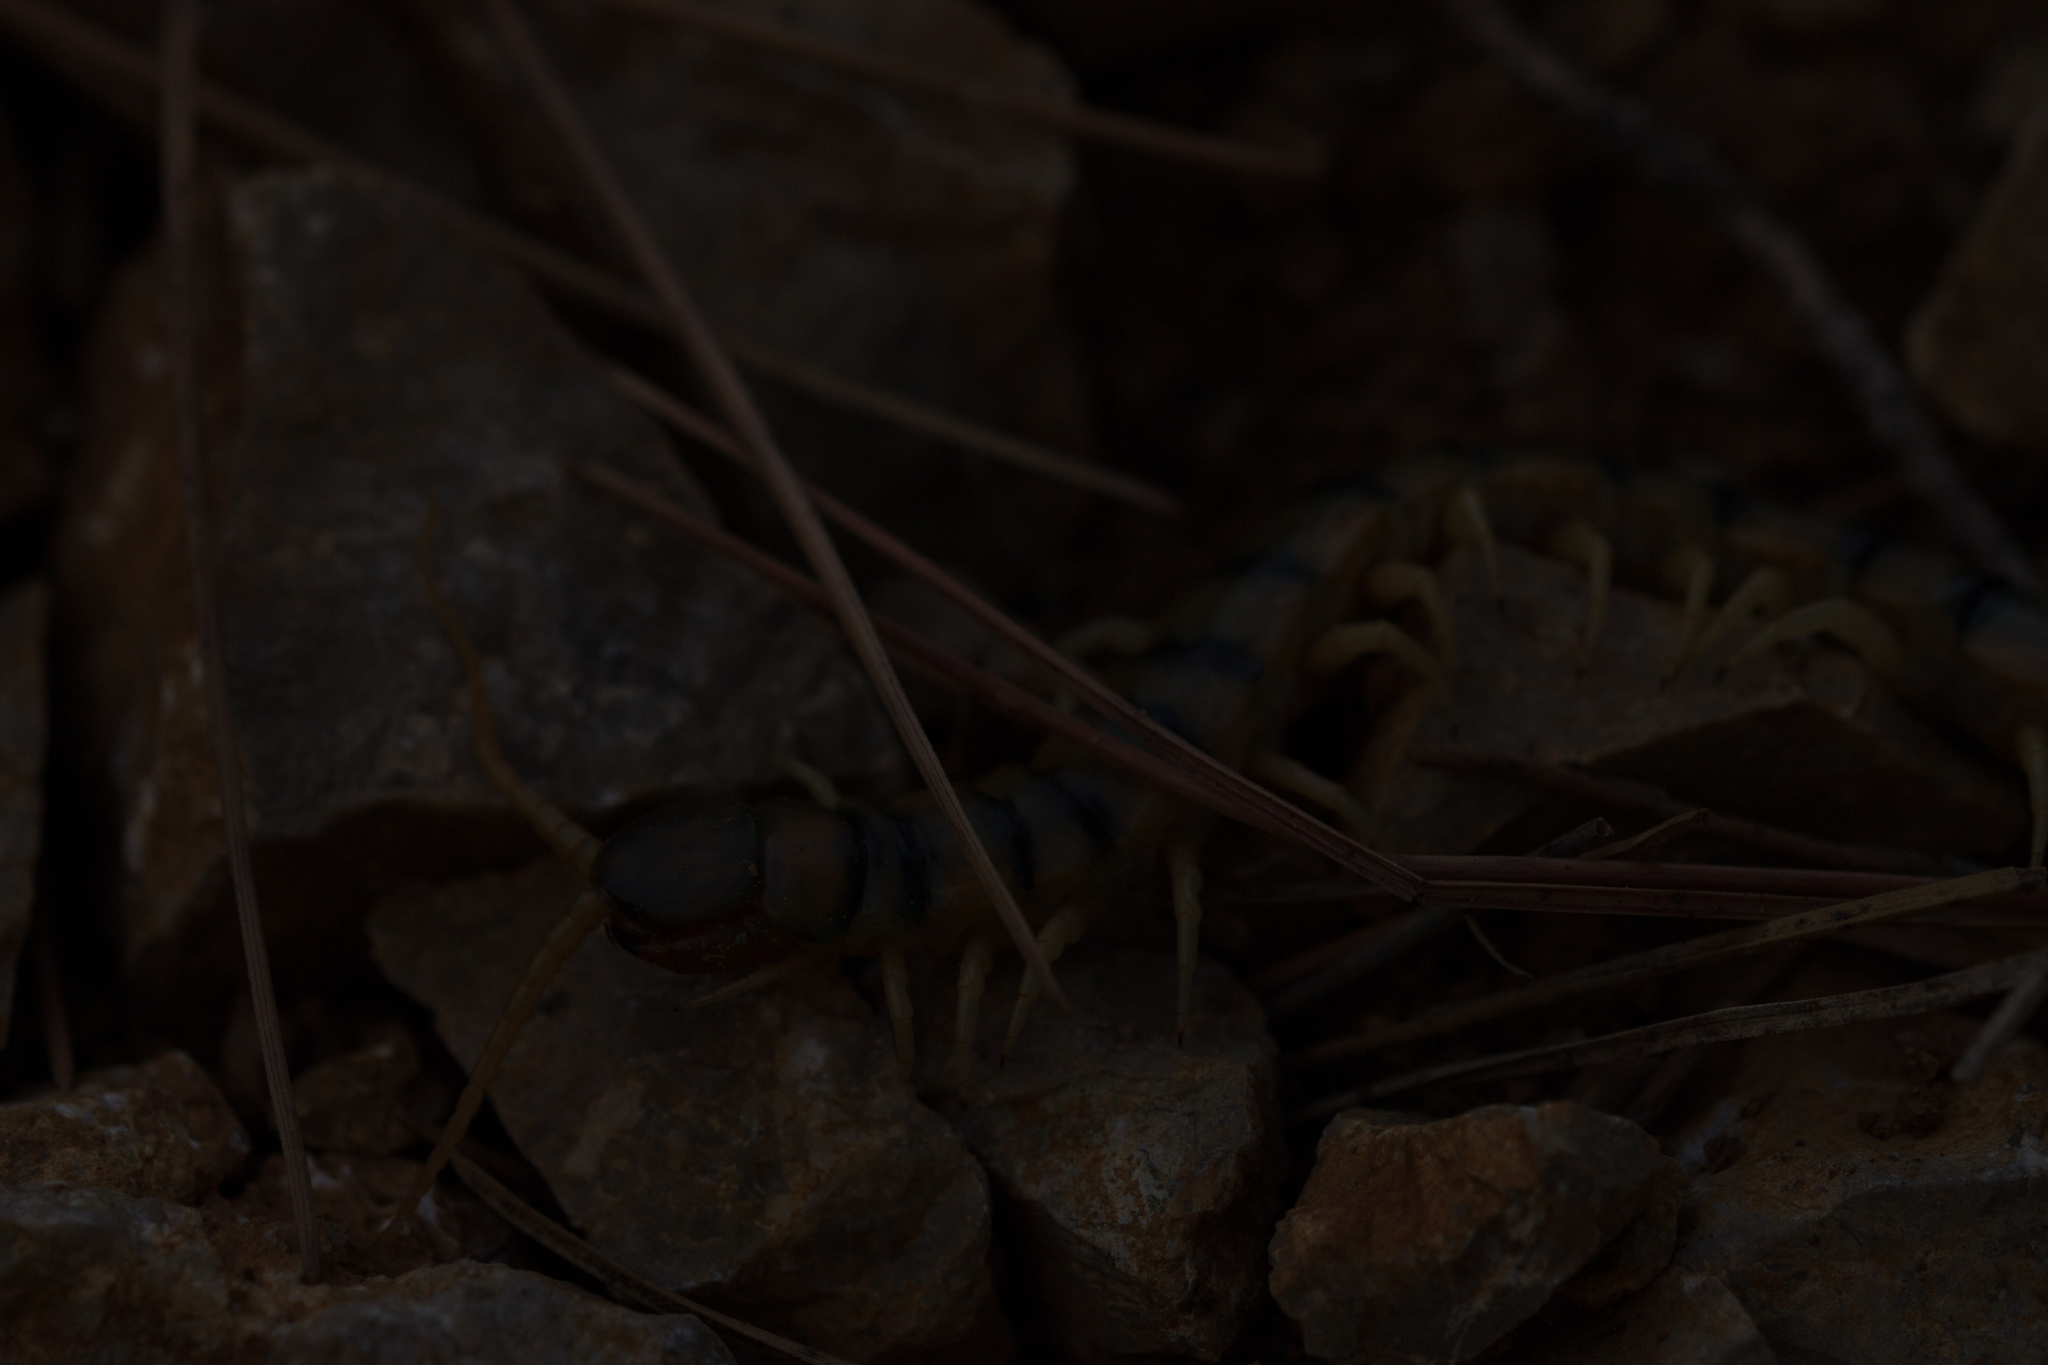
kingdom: Animalia
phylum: Arthropoda
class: Chilopoda
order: Scolopendromorpha
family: Scolopendridae
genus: Scolopendra
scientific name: Scolopendra cingulata
